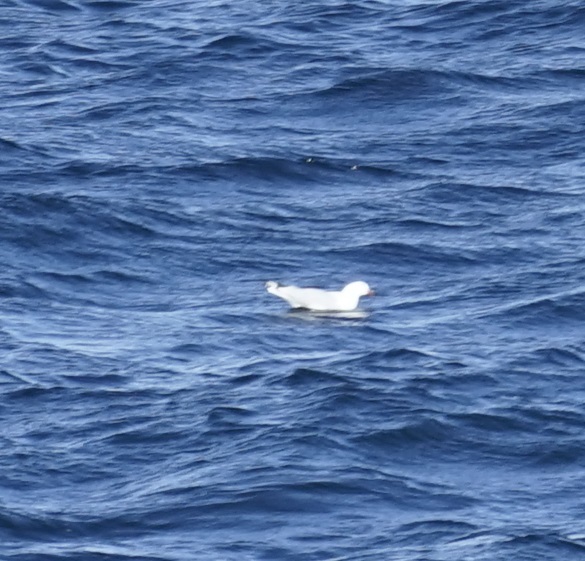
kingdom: Animalia
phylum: Chordata
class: Aves
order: Charadriiformes
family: Laridae
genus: Chroicocephalus
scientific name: Chroicocephalus novaehollandiae
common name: Silver gull
